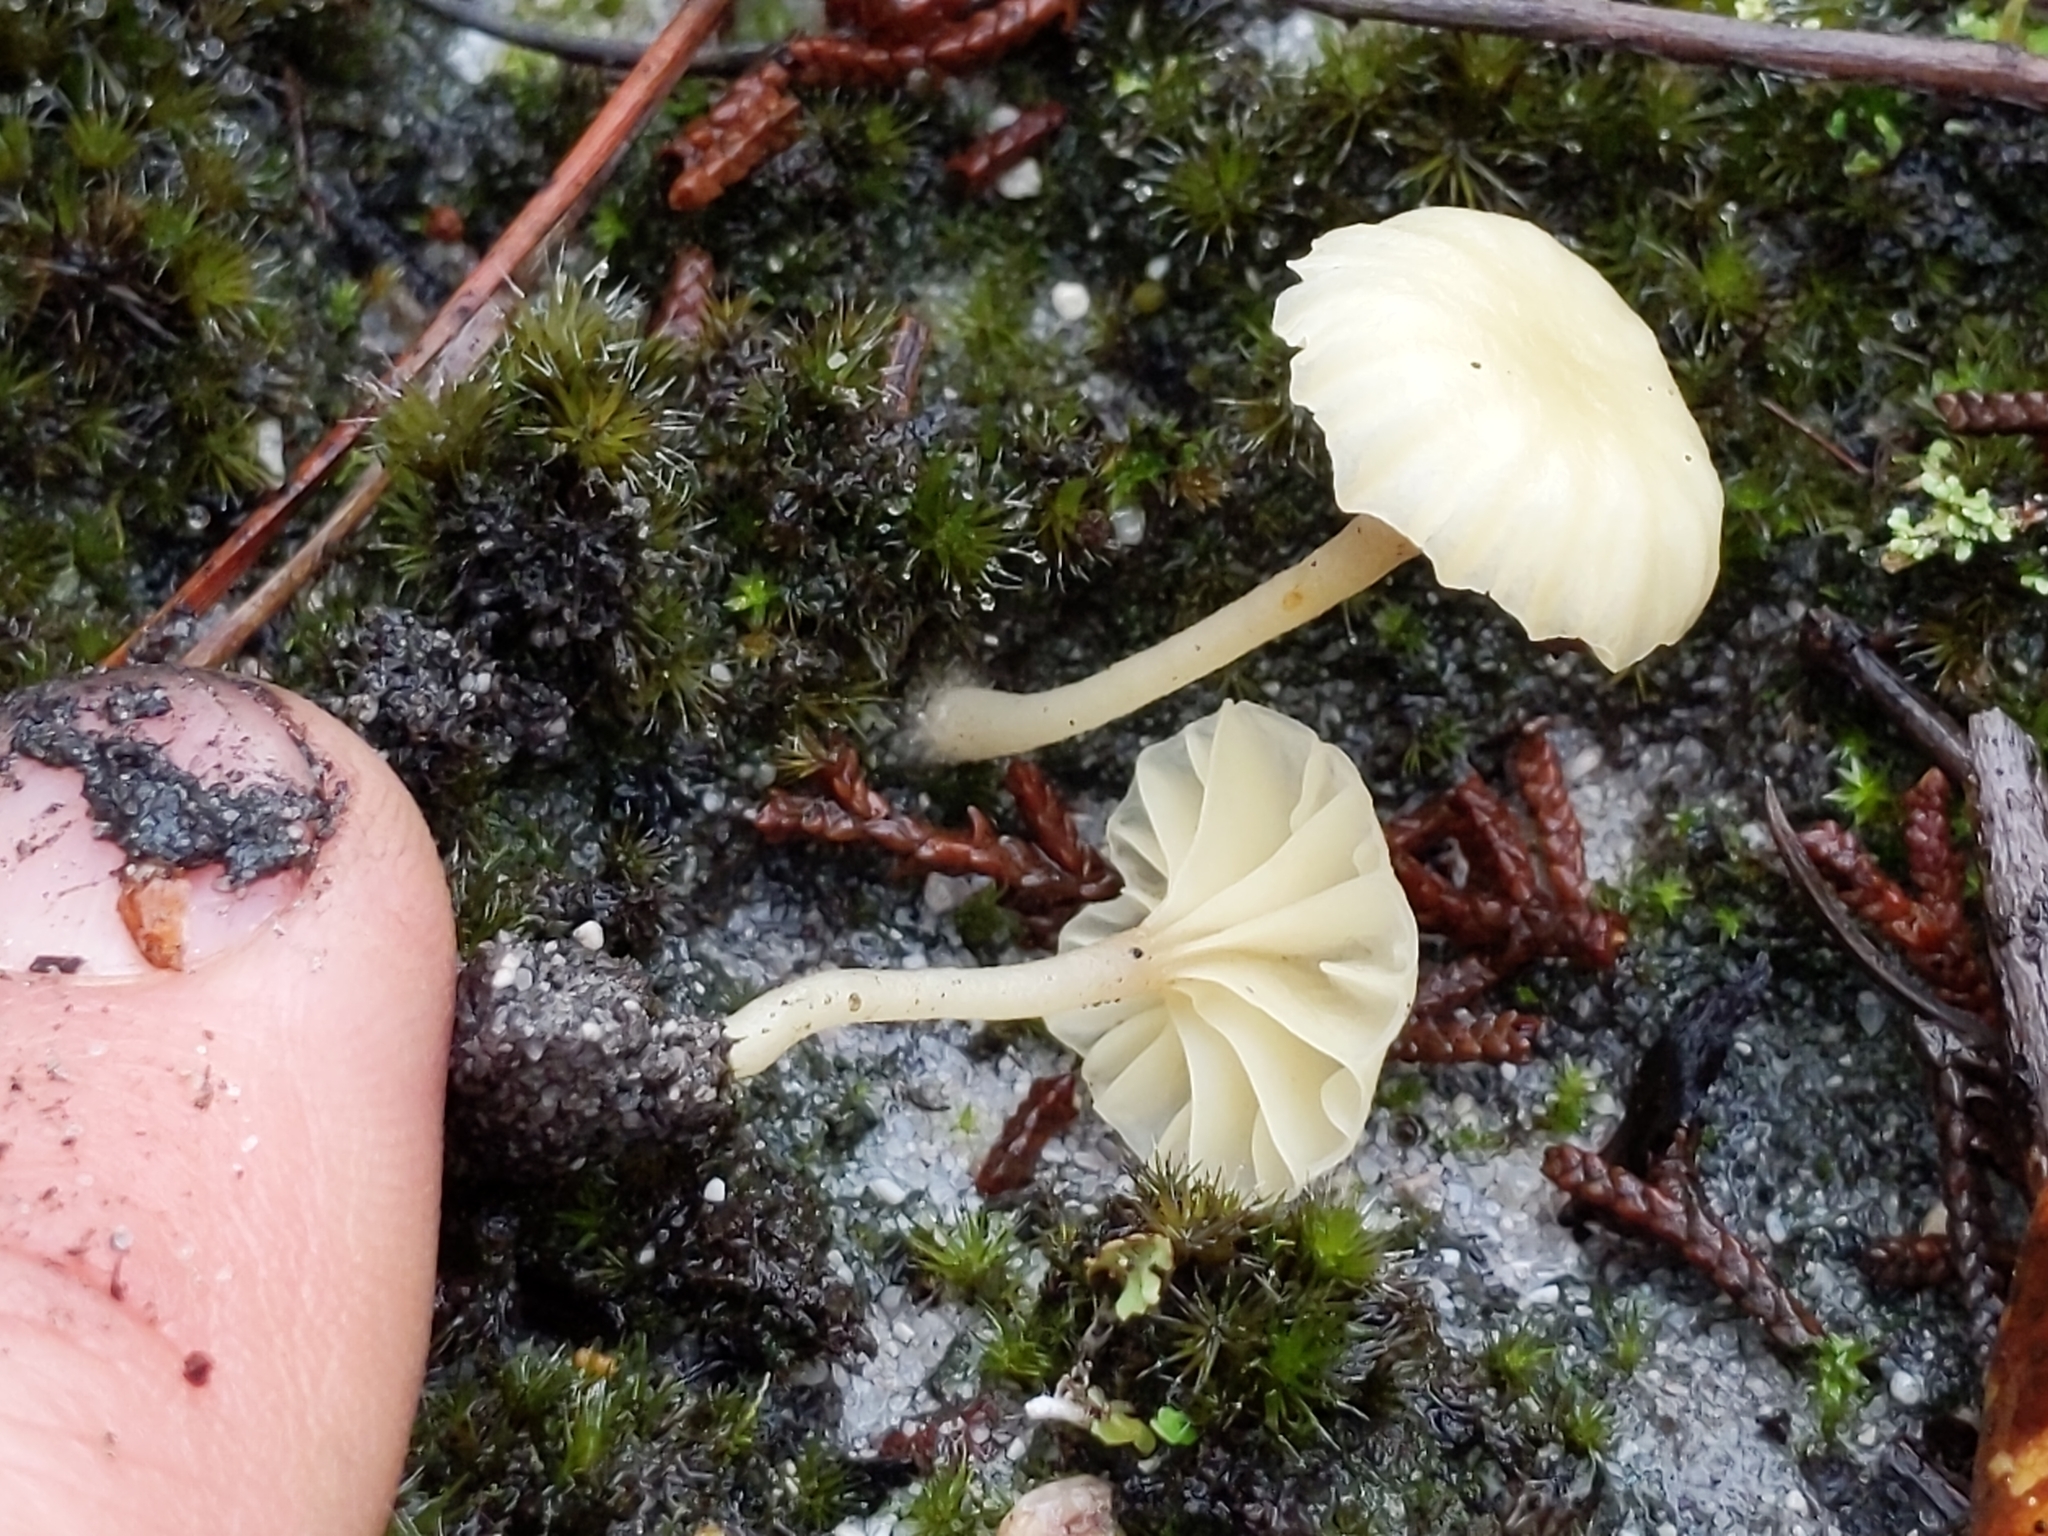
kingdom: Fungi
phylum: Basidiomycota
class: Agaricomycetes
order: Agaricales
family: Hygrophoraceae
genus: Lichenomphalia
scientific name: Lichenomphalia
